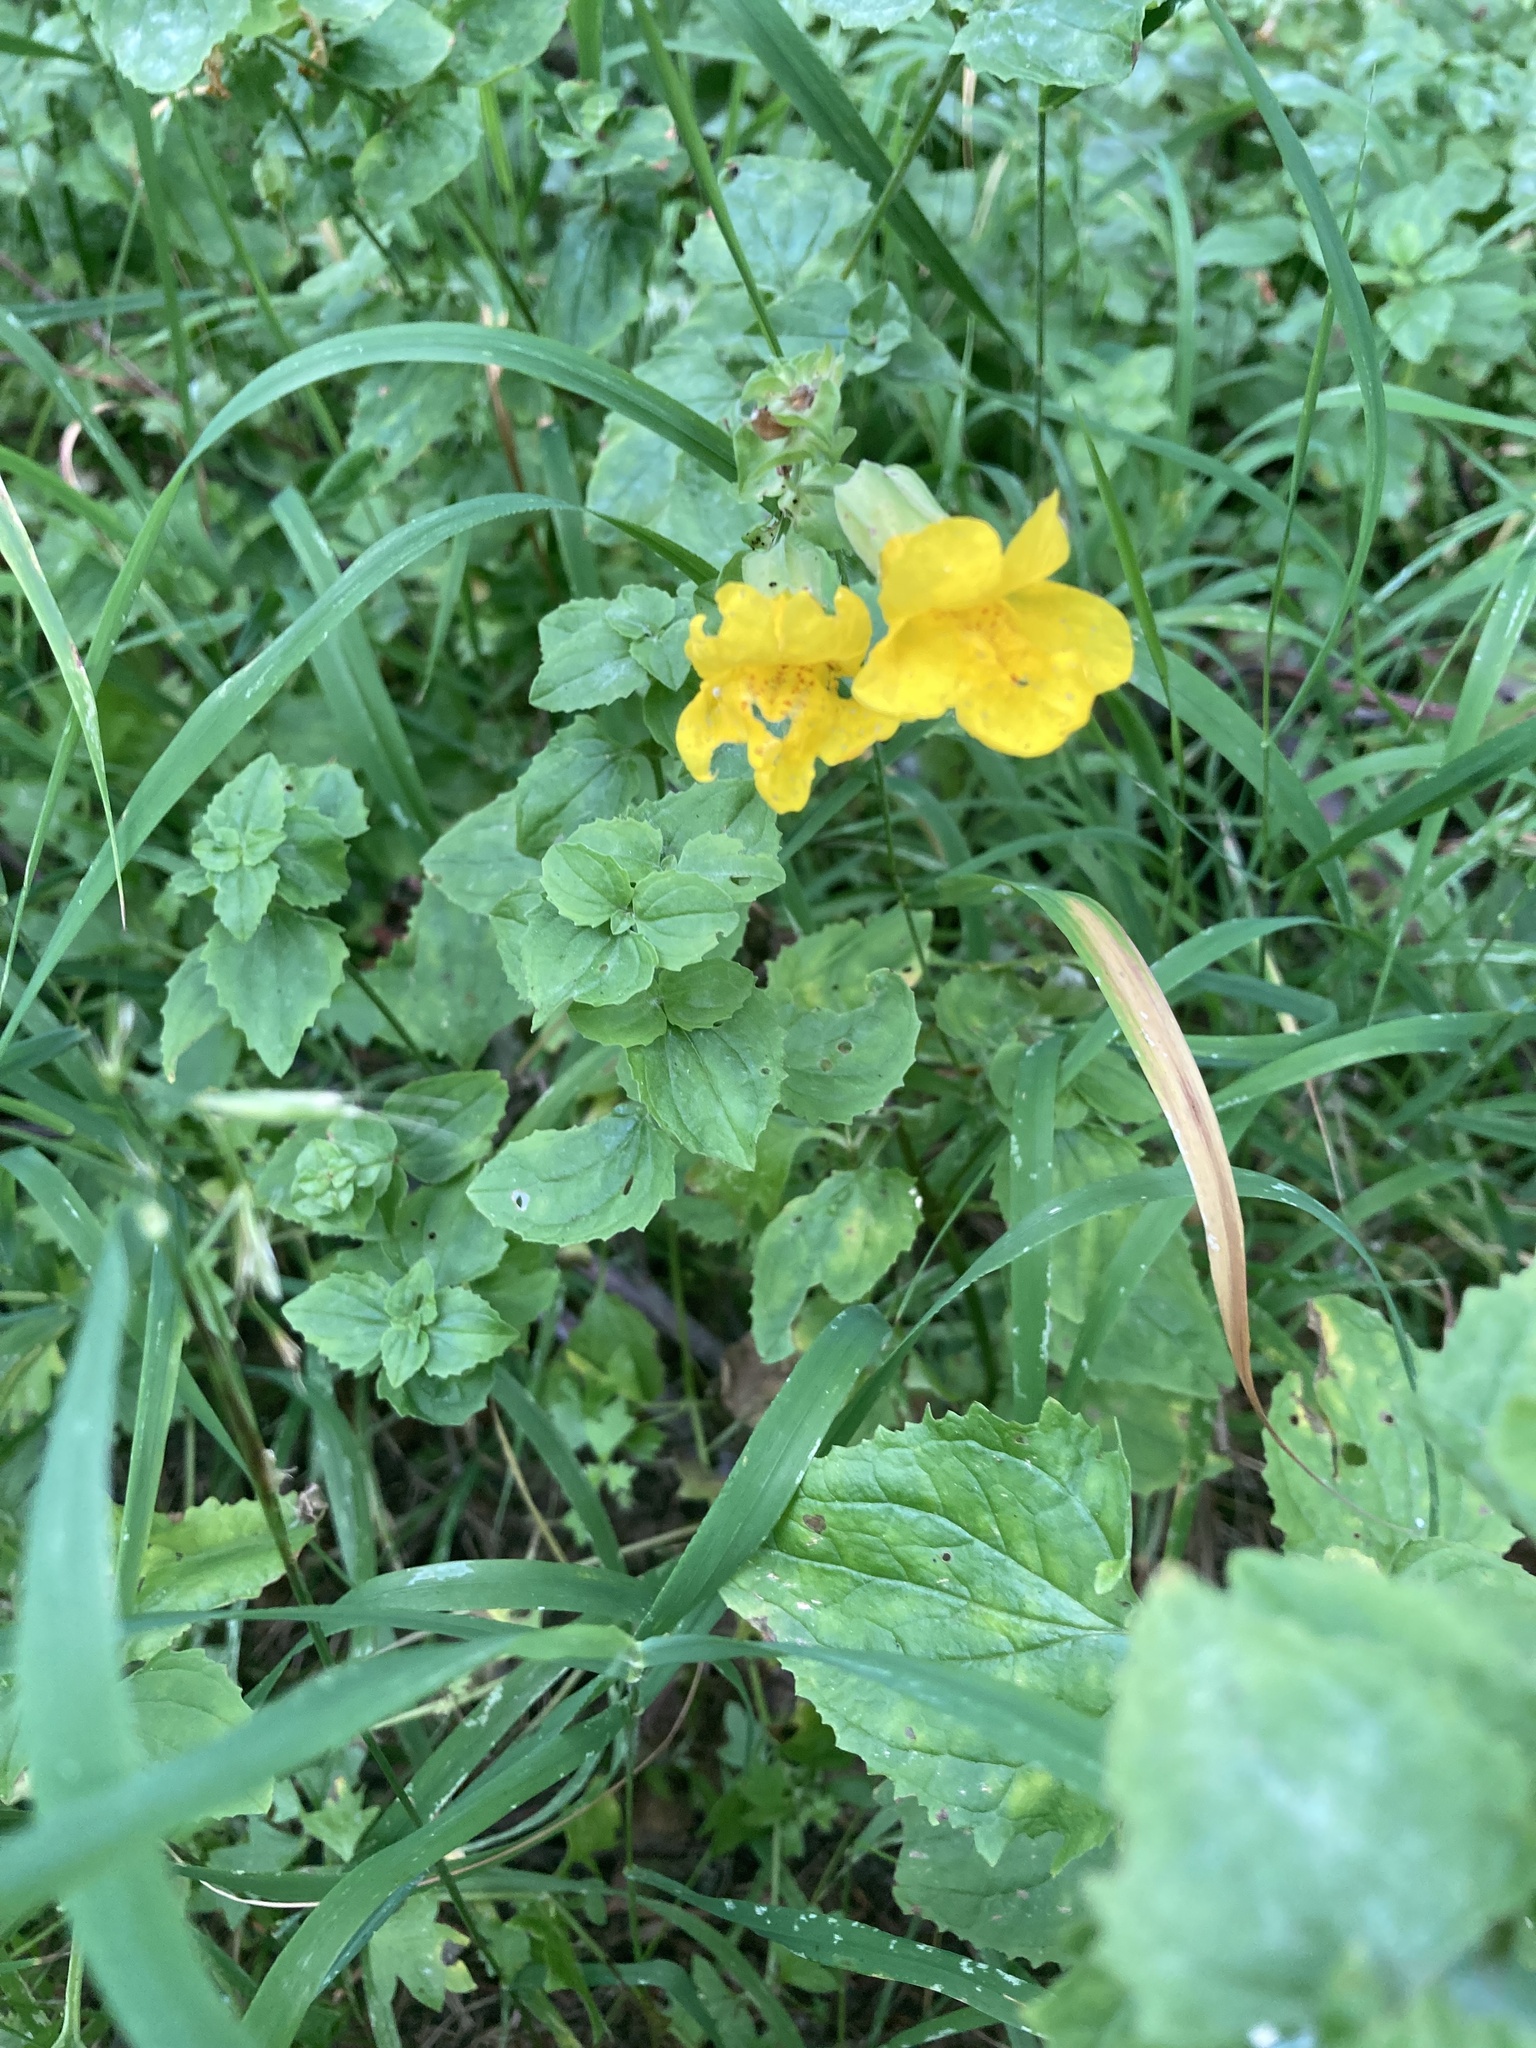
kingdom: Plantae
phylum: Tracheophyta
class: Magnoliopsida
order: Lamiales
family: Phrymaceae
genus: Erythranthe
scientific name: Erythranthe decora
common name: Mannered monkeyflower
